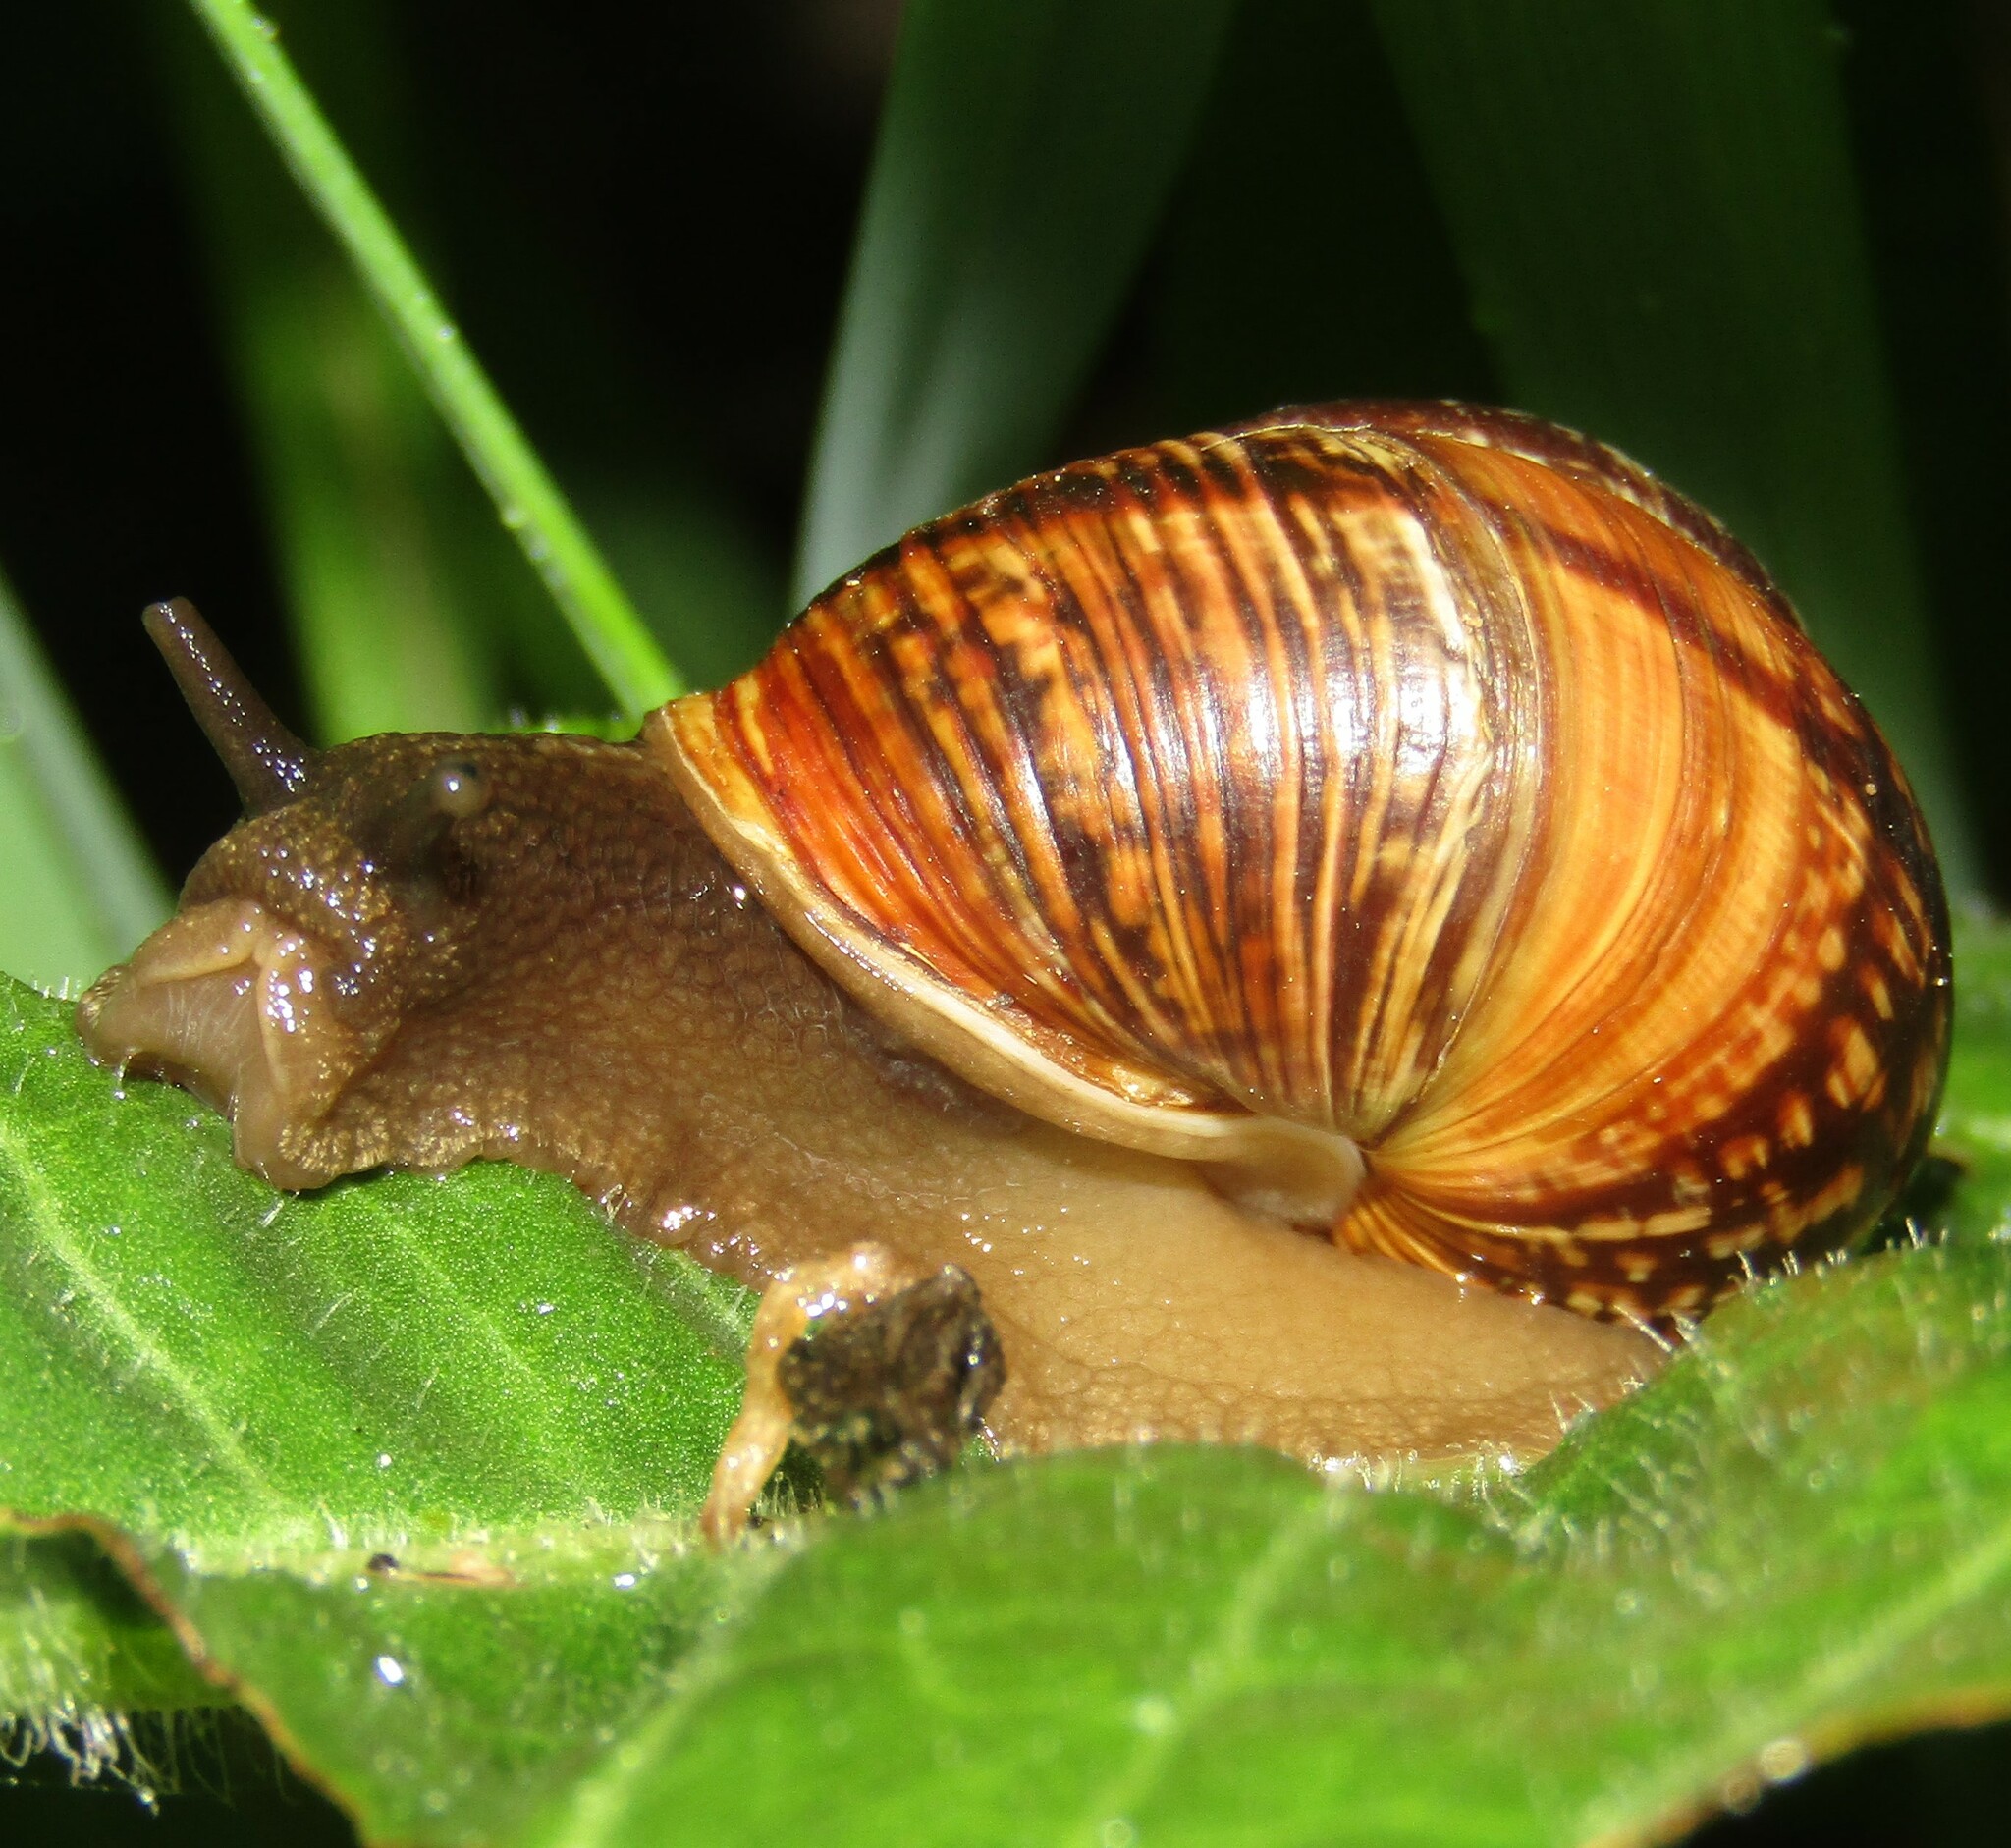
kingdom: Animalia
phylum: Mollusca
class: Gastropoda
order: Stylommatophora
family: Helicidae
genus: Arianta
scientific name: Arianta arbustorum
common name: Copse snail
